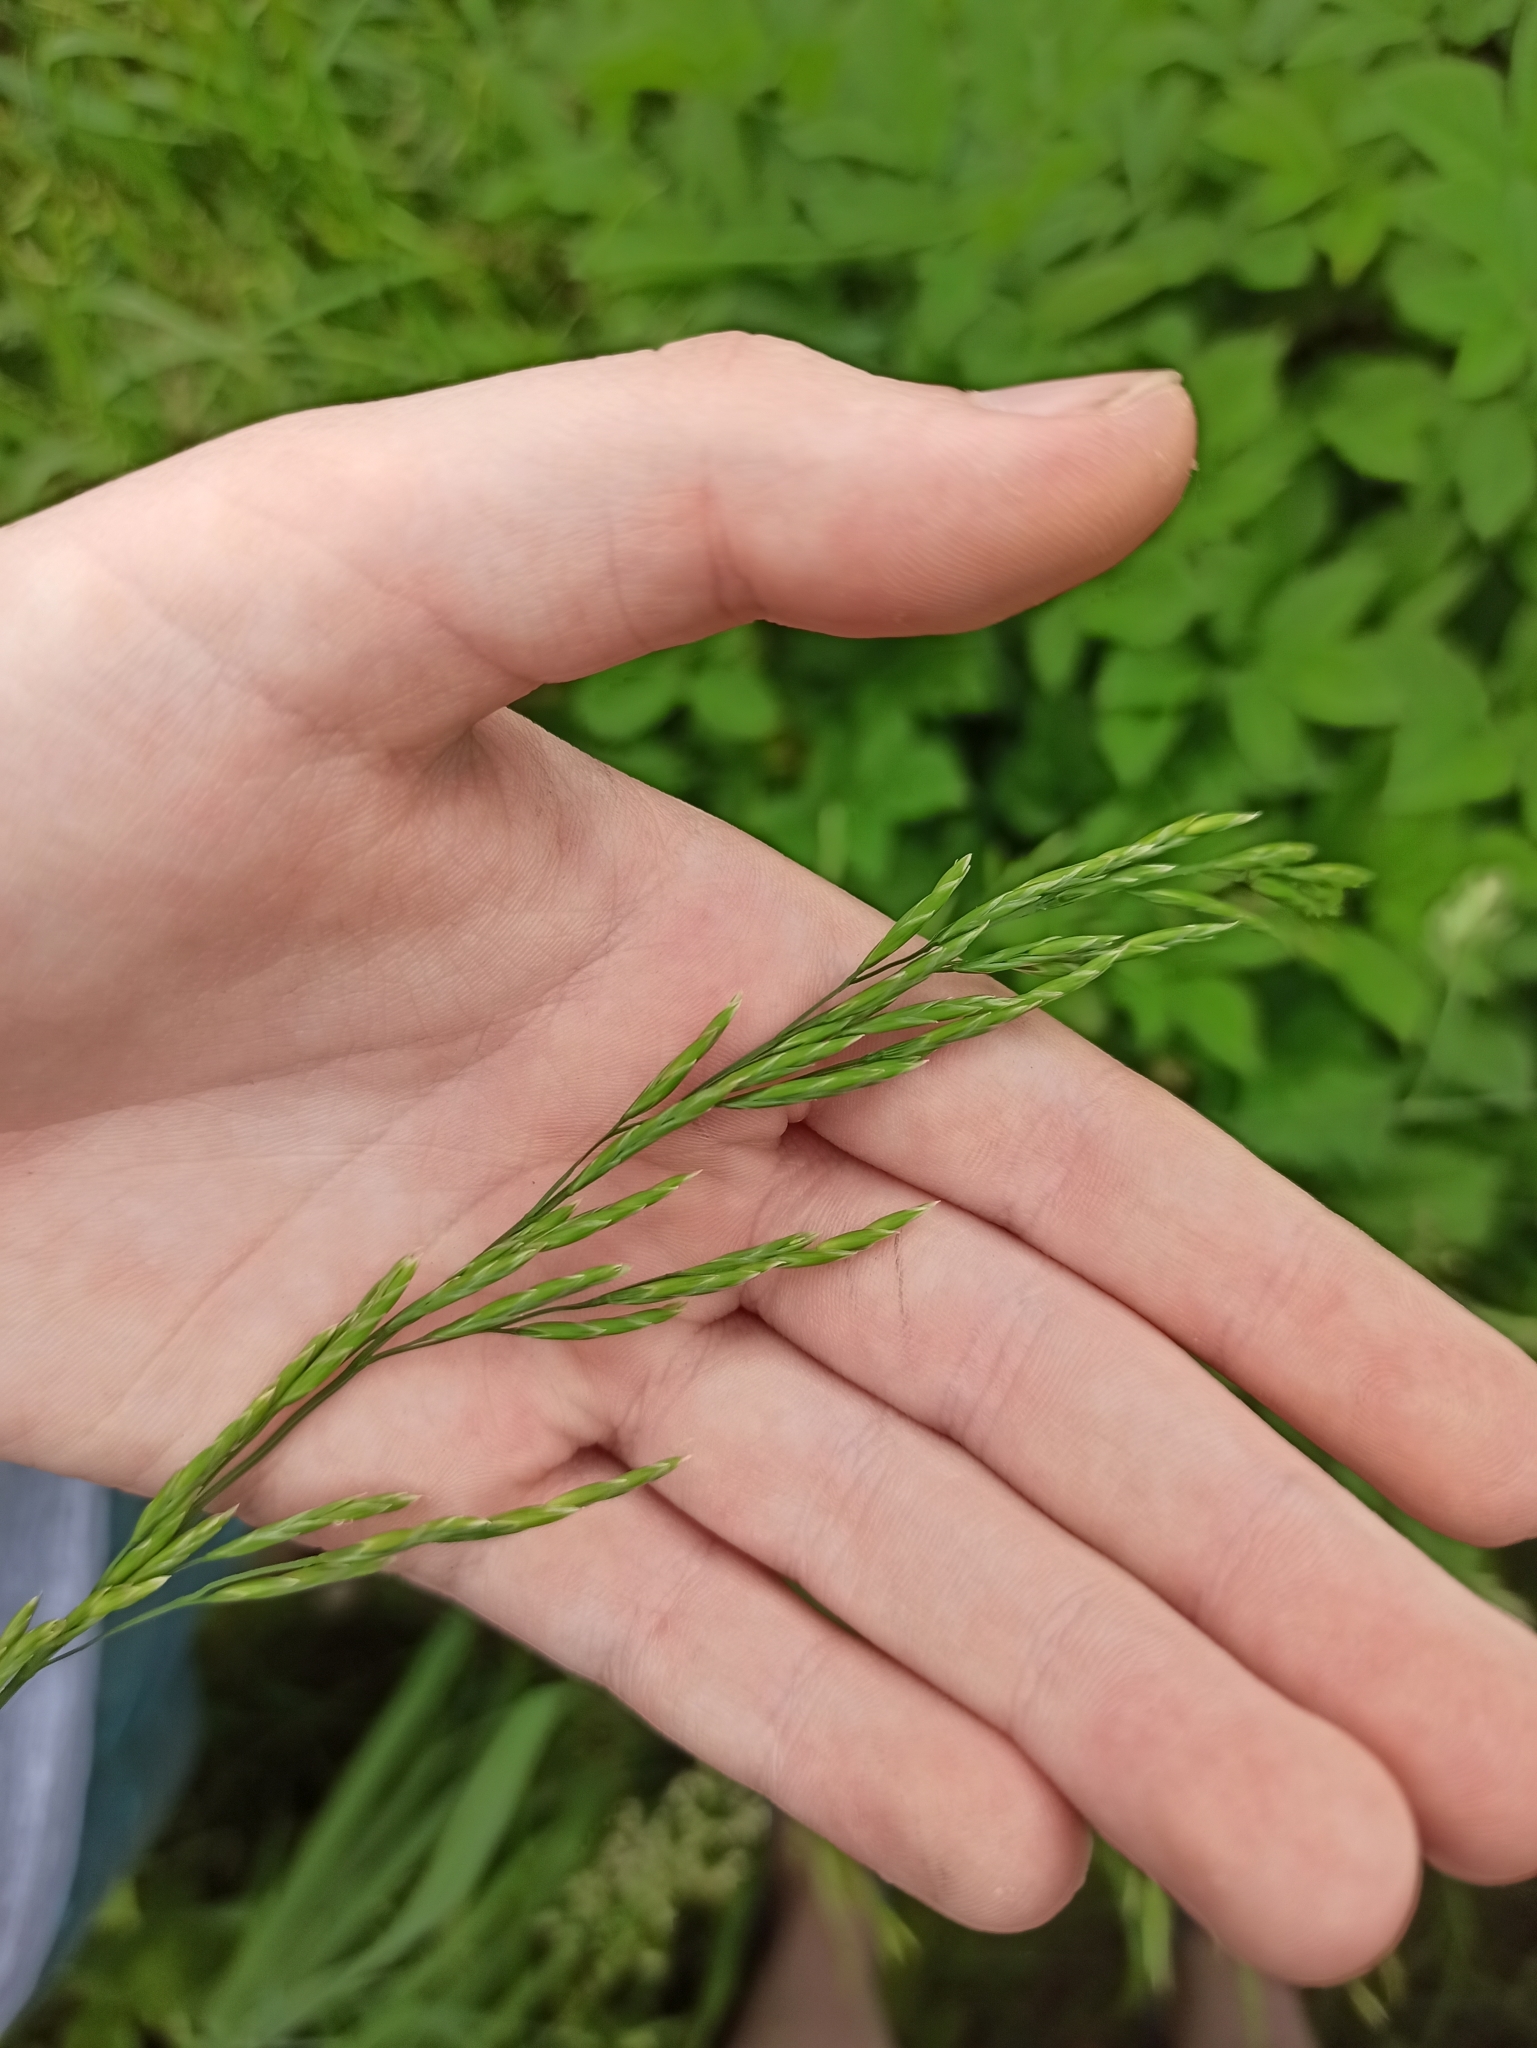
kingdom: Plantae
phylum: Tracheophyta
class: Liliopsida
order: Poales
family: Poaceae
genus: Lolium
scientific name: Lolium pratense
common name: Dover grass
